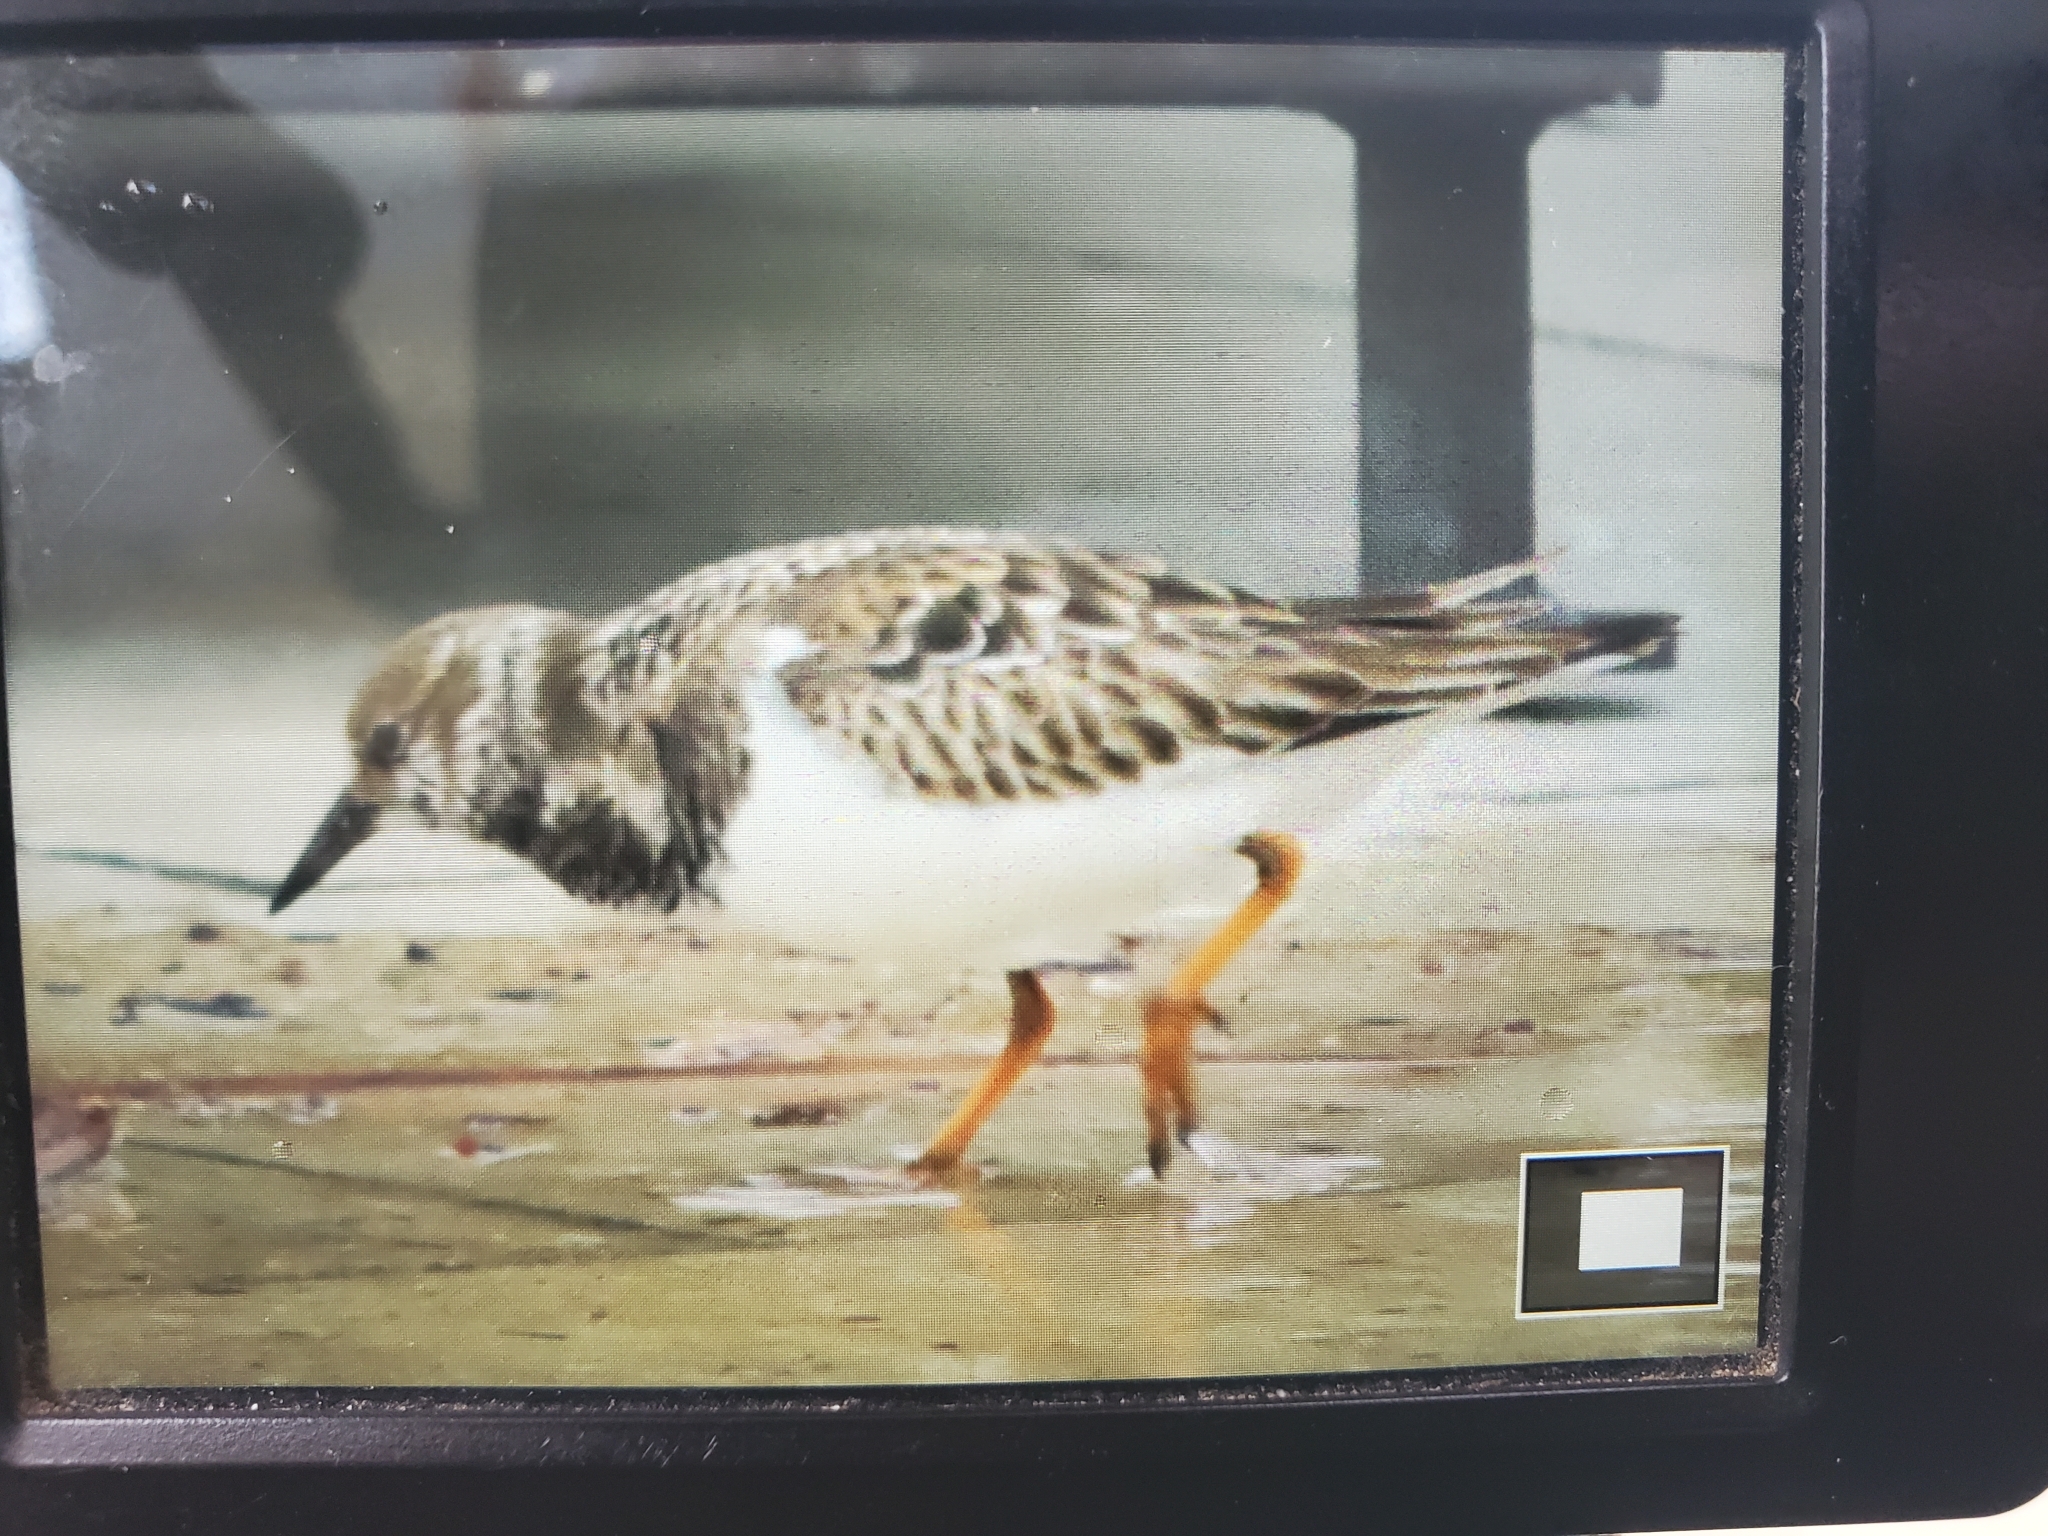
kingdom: Animalia
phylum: Chordata
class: Aves
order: Charadriiformes
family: Scolopacidae
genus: Arenaria
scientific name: Arenaria interpres
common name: Ruddy turnstone
